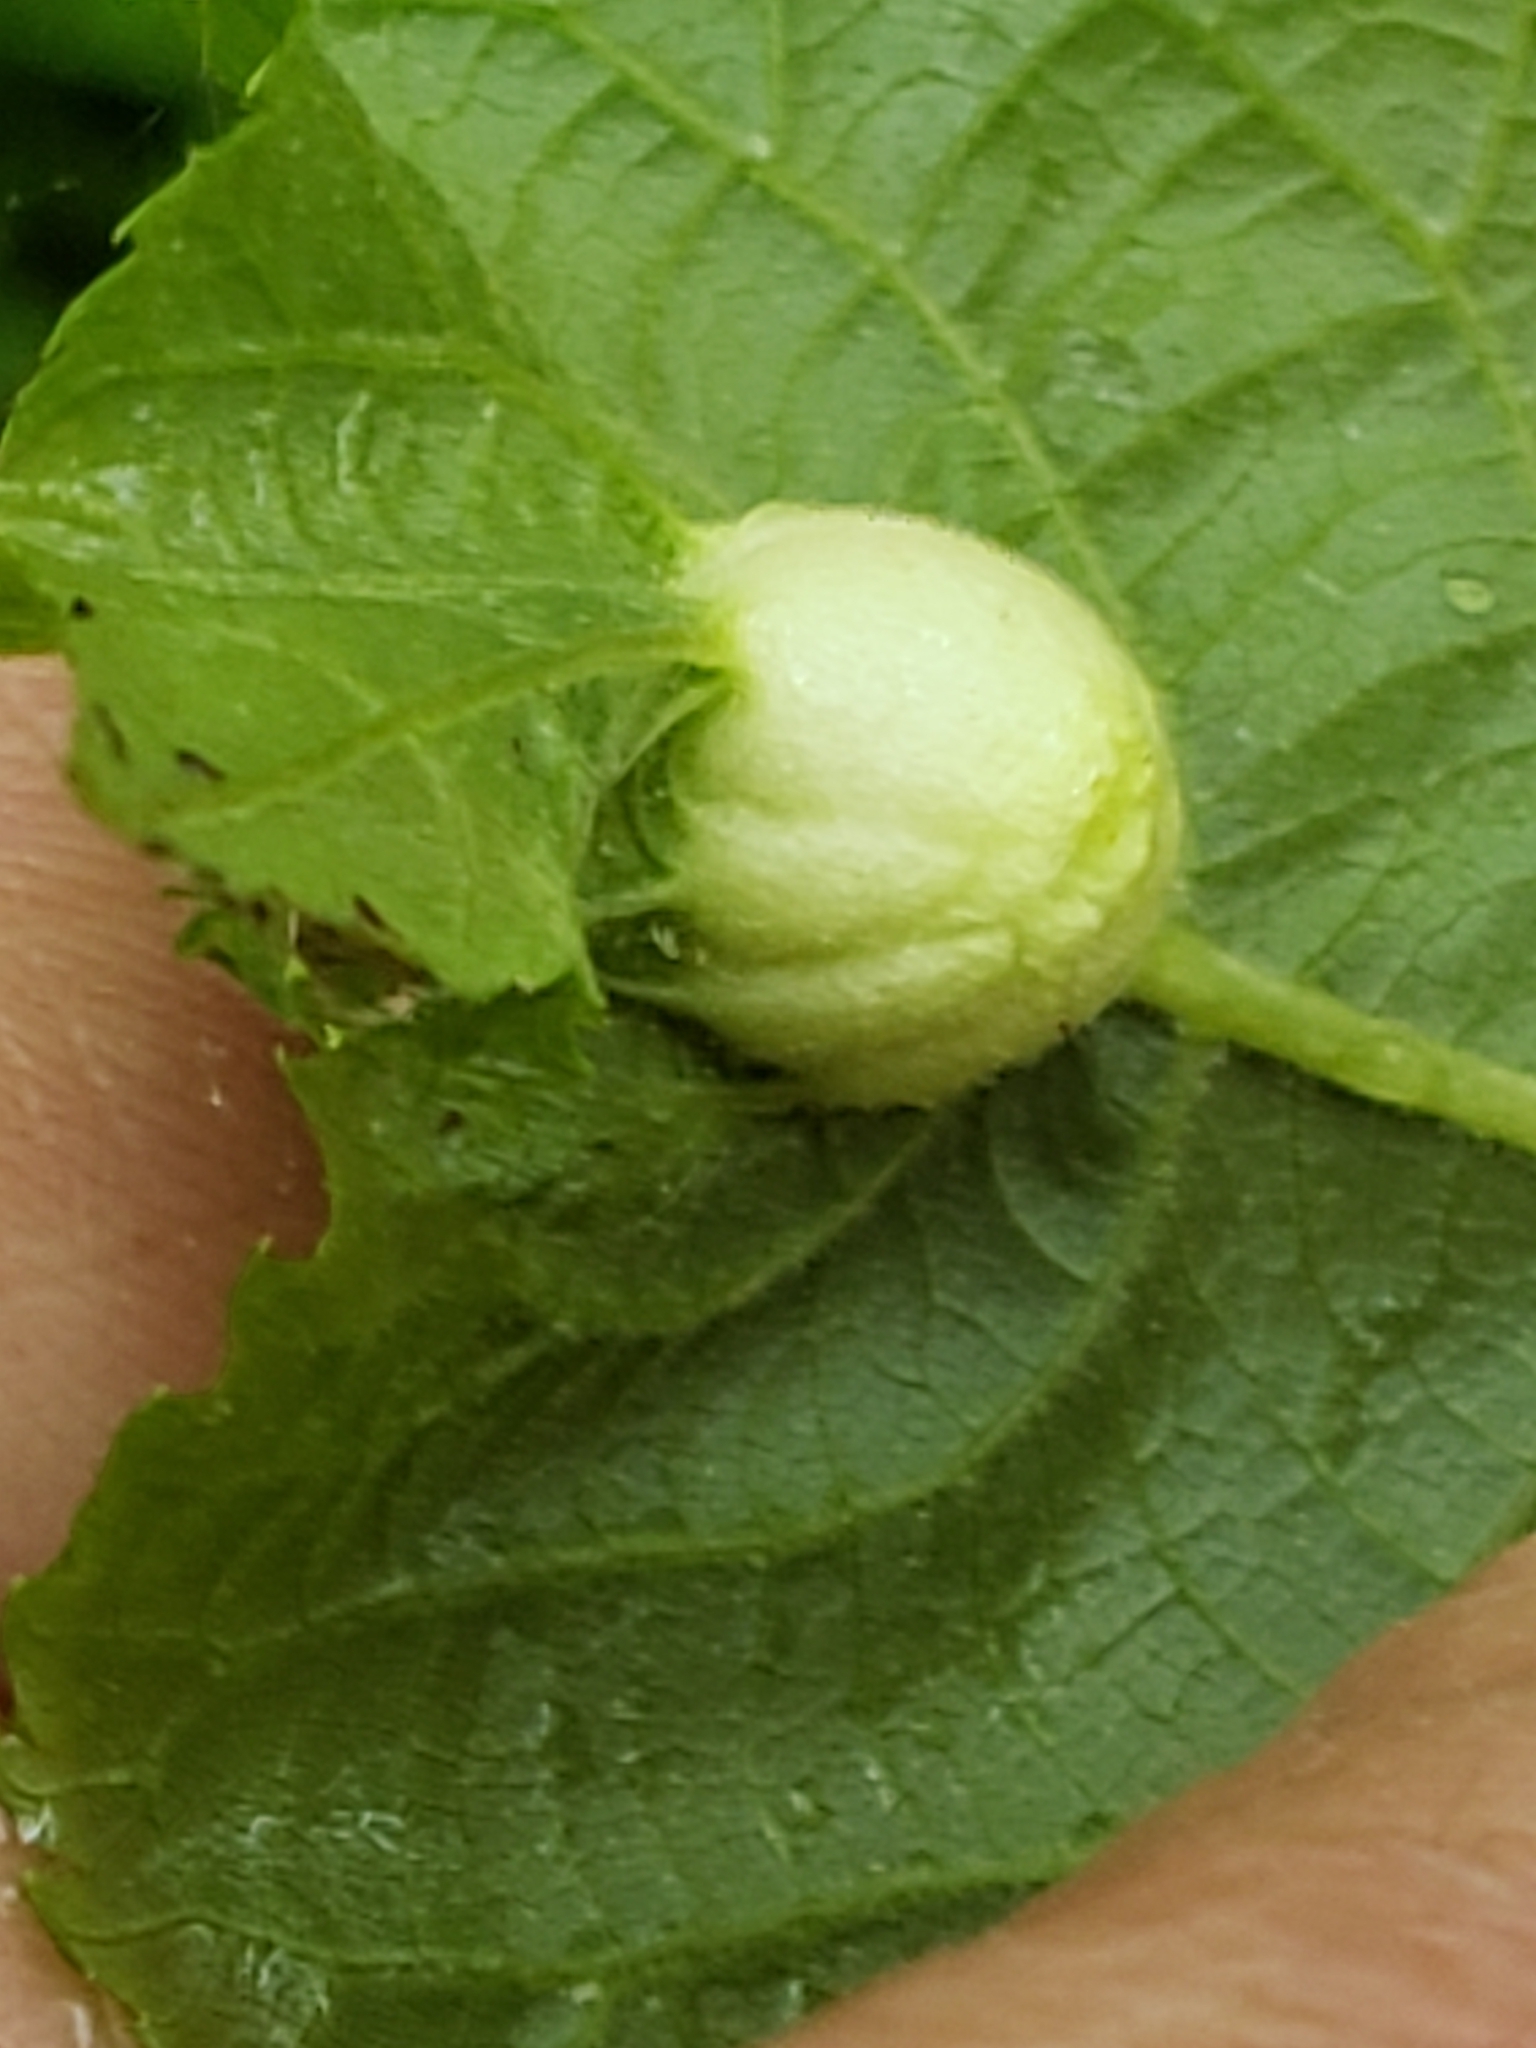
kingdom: Animalia
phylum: Arthropoda
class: Insecta
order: Hemiptera
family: Phylloxeridae
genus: Phylloxera
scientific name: Phylloxera
